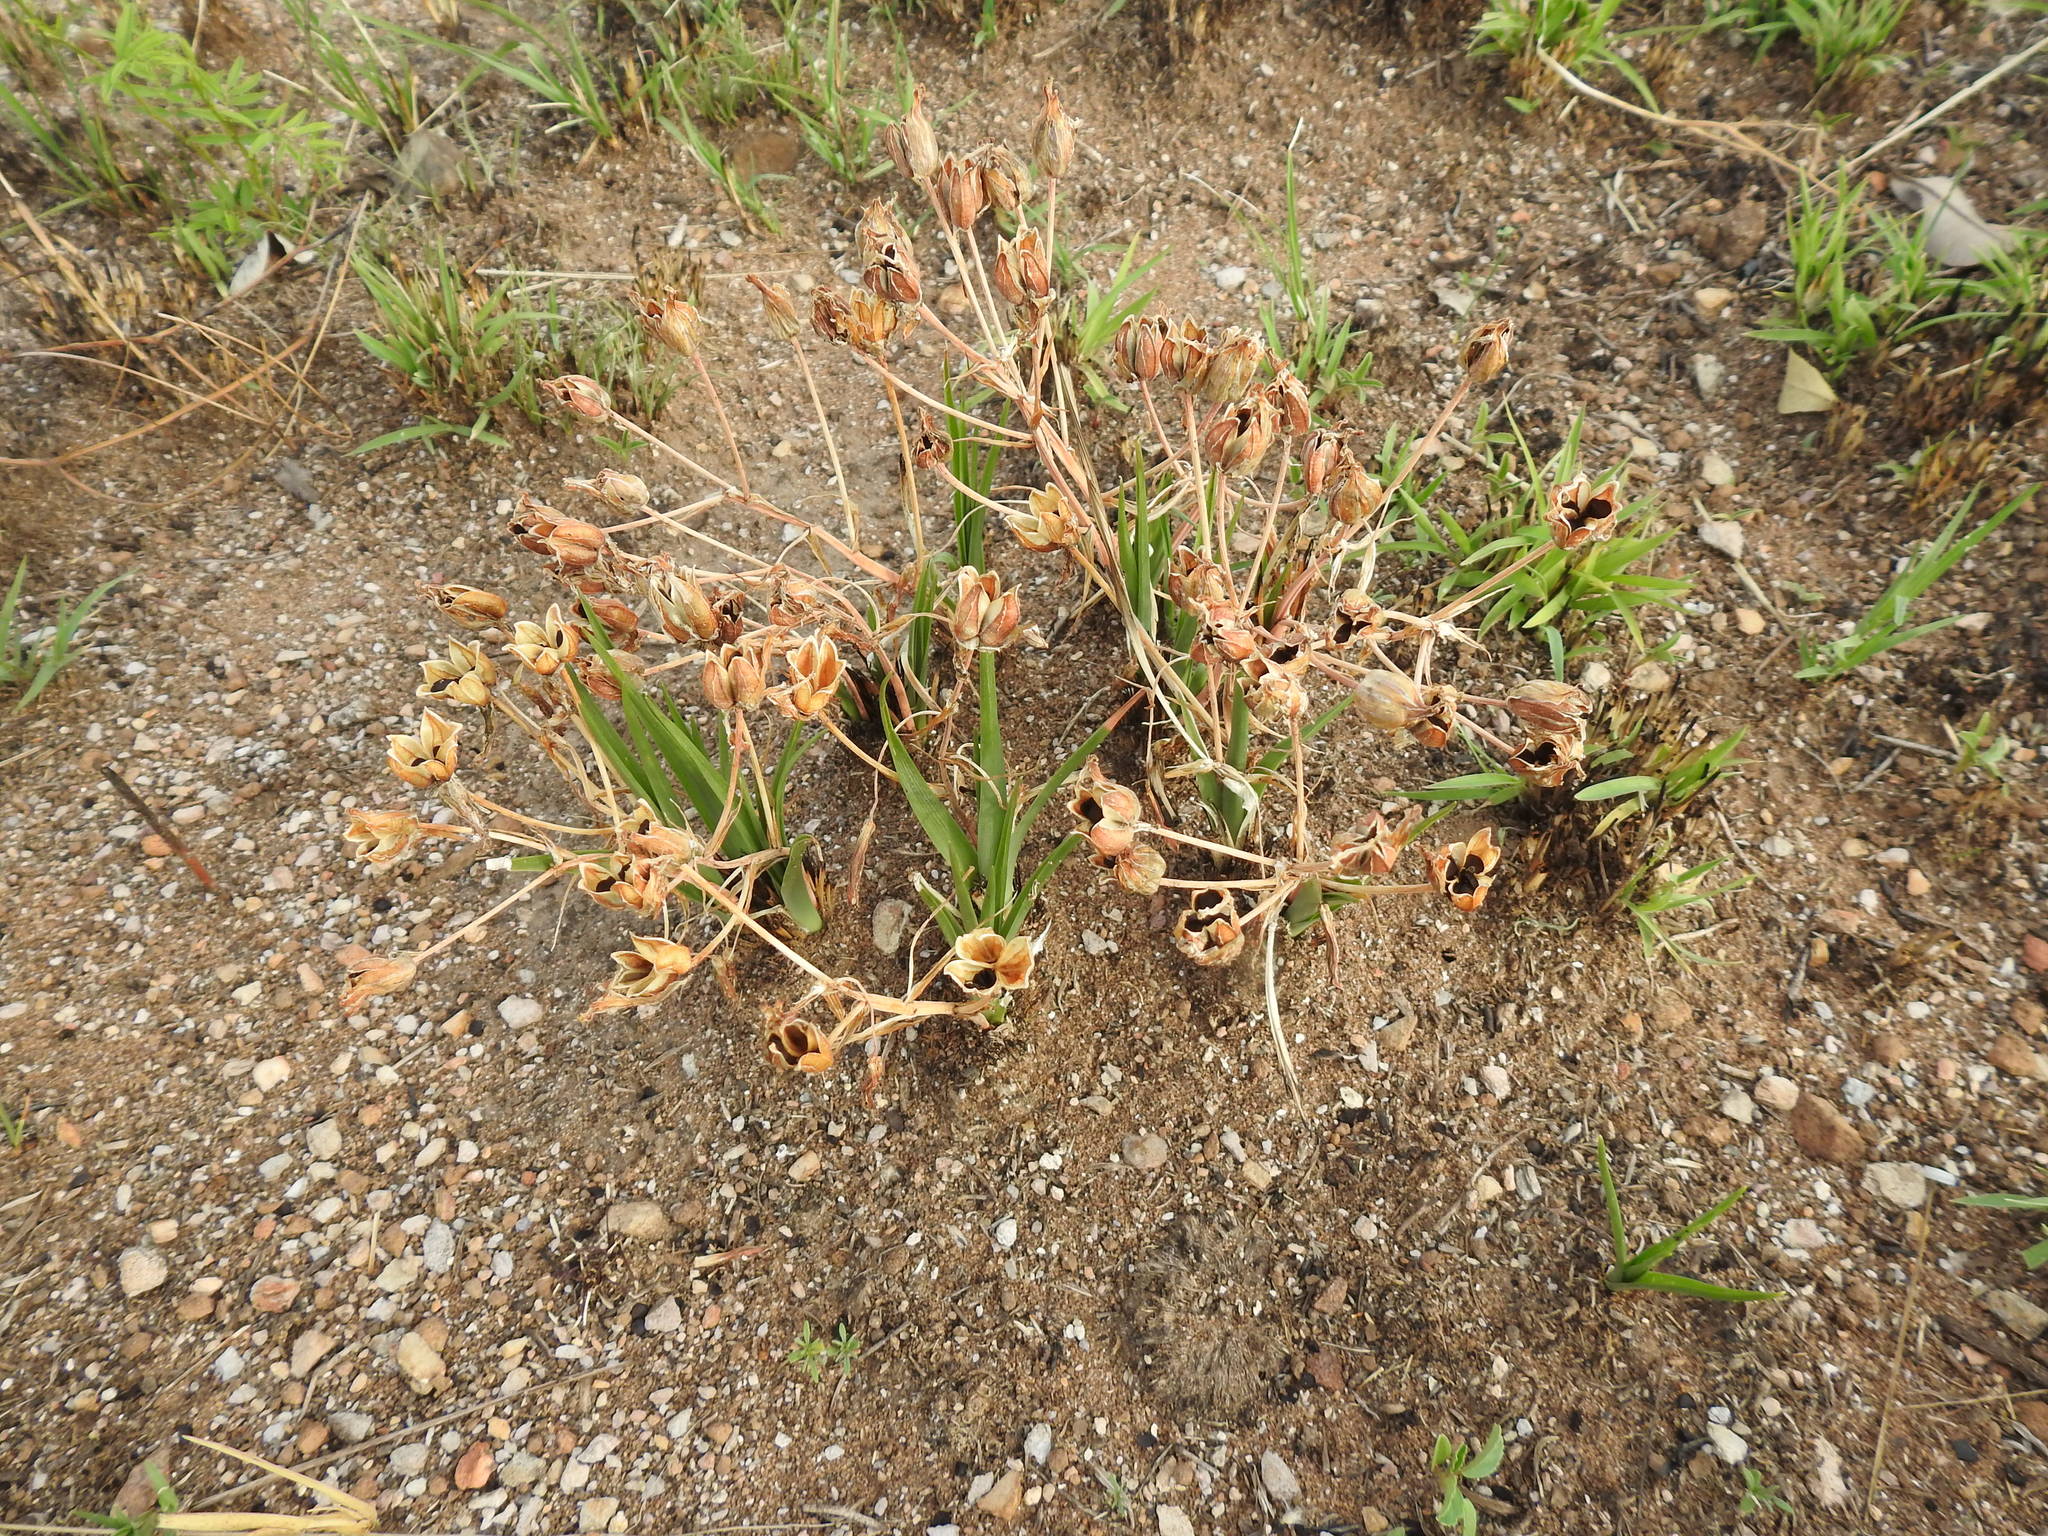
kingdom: Plantae
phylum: Tracheophyta
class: Liliopsida
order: Asparagales
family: Asparagaceae
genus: Albuca
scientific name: Albuca setosa
